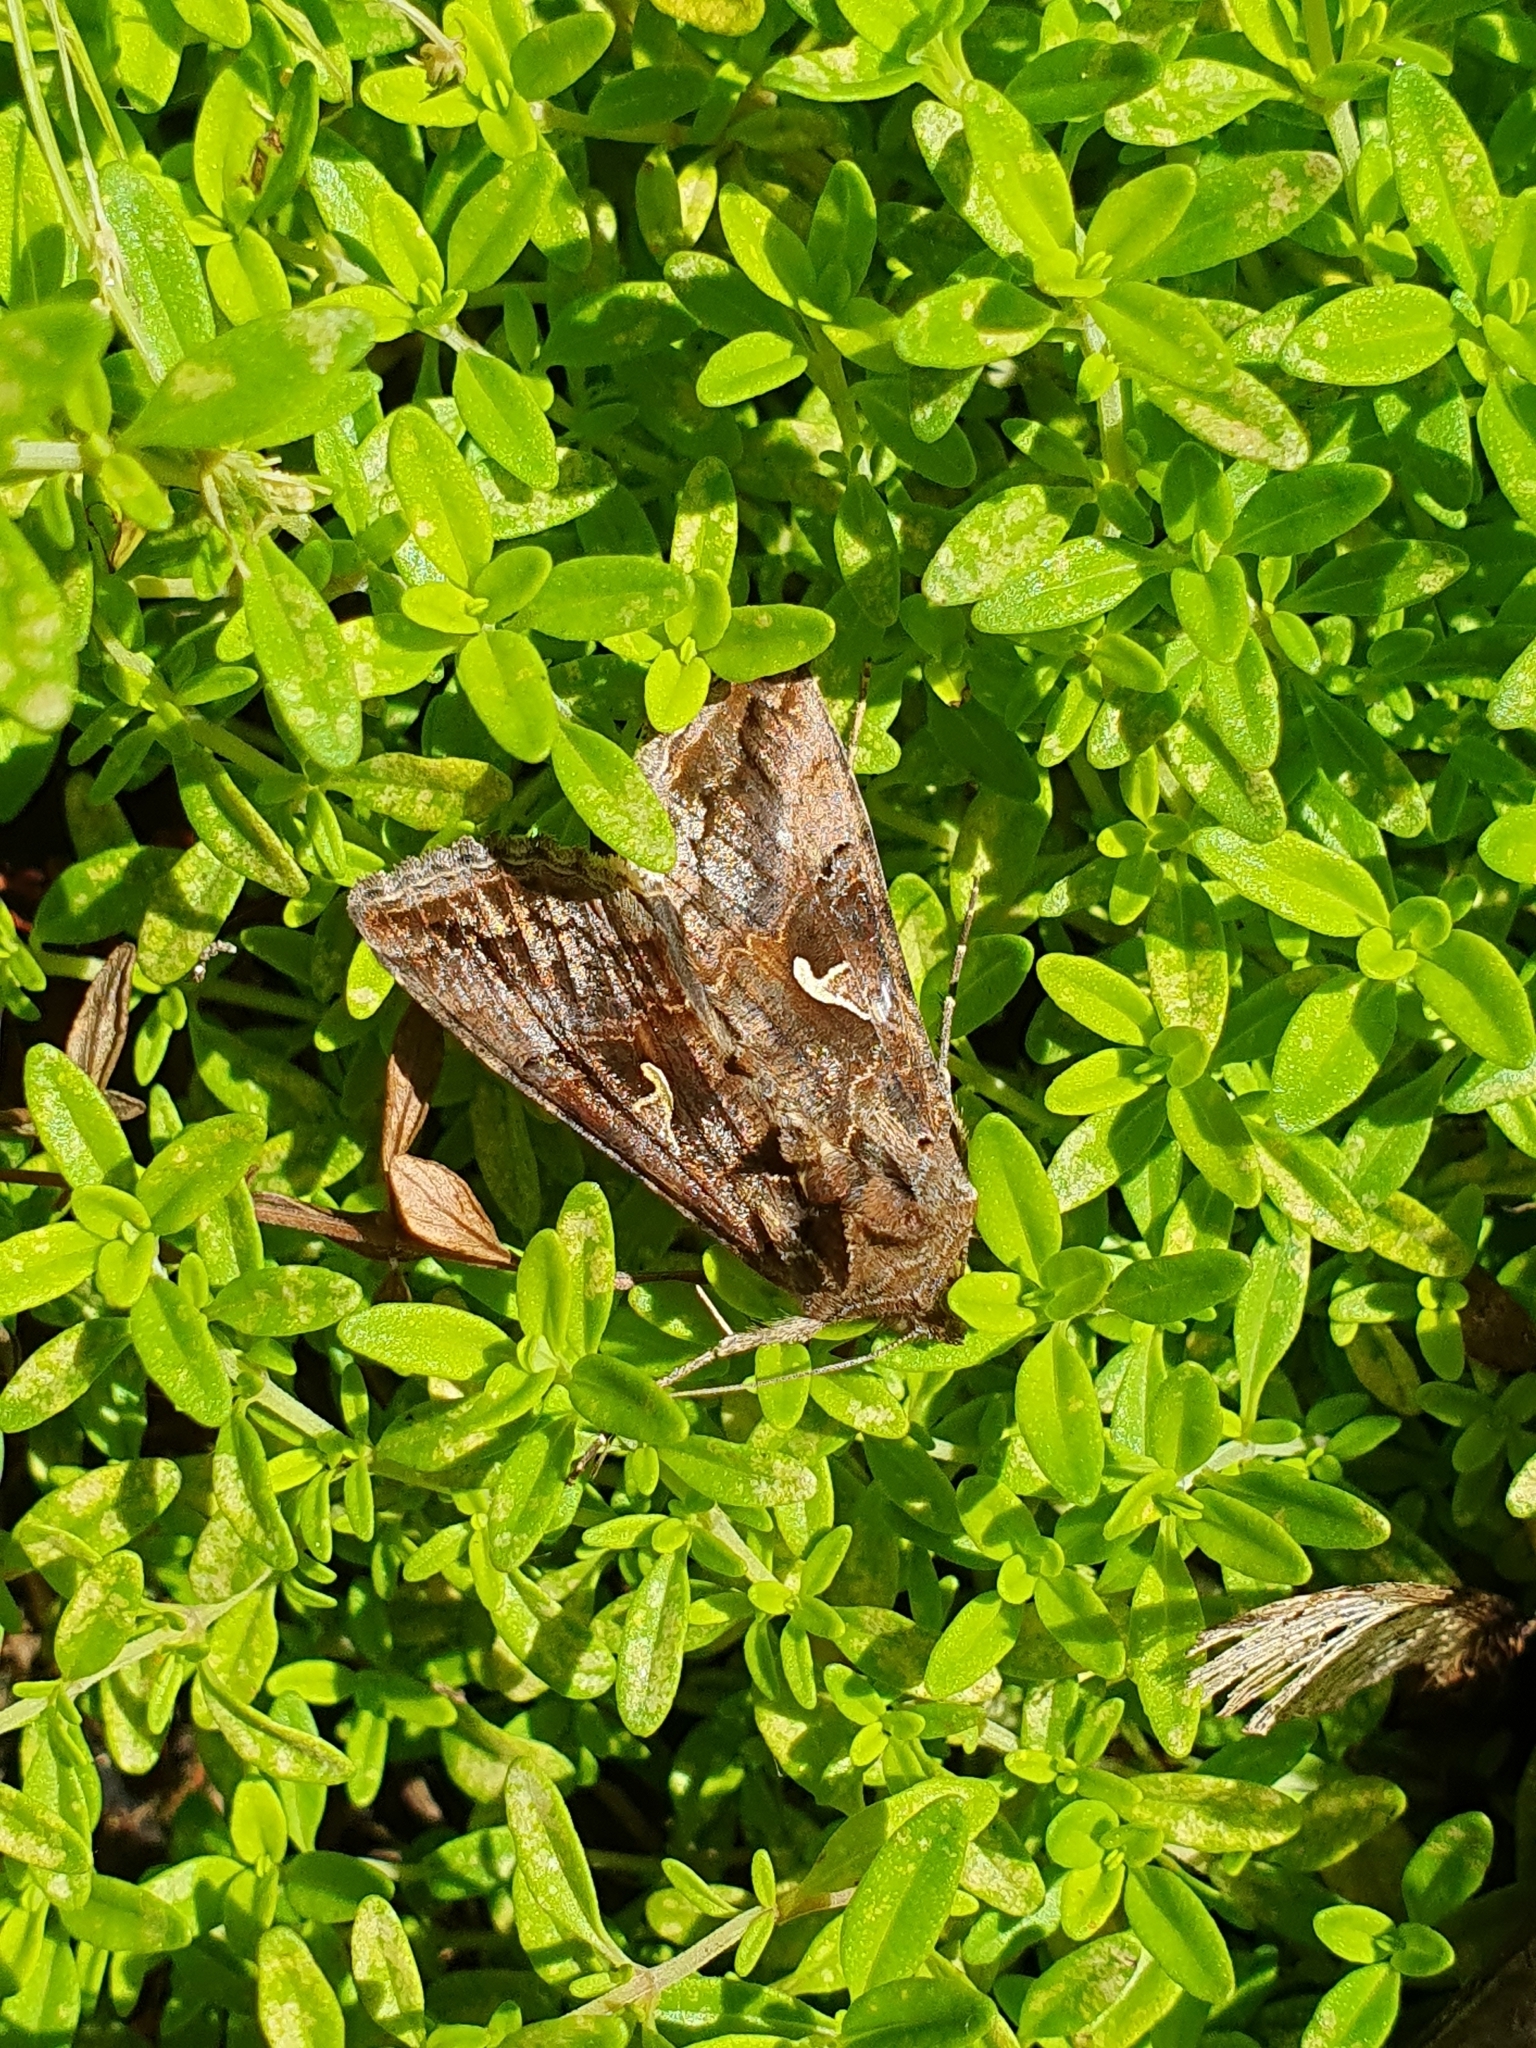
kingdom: Animalia
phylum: Arthropoda
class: Insecta
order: Lepidoptera
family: Noctuidae
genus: Autographa
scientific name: Autographa gamma
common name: Silver y
